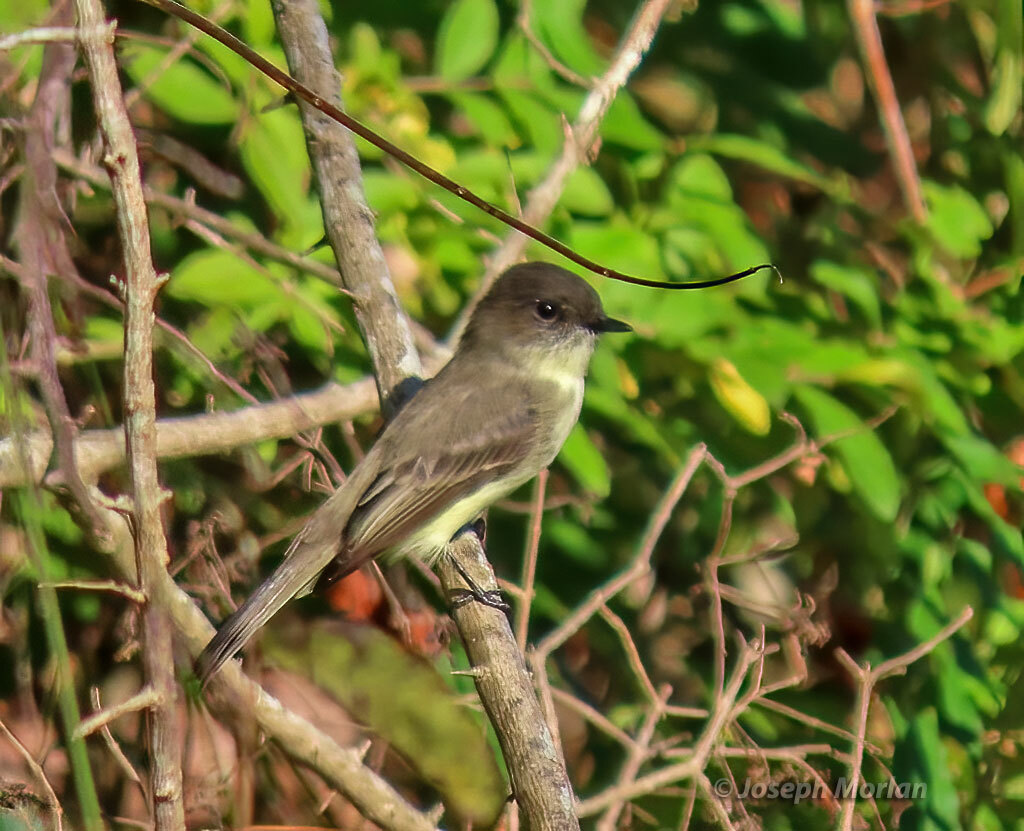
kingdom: Animalia
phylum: Chordata
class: Aves
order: Passeriformes
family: Tyrannidae
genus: Sayornis
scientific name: Sayornis phoebe
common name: Eastern phoebe
